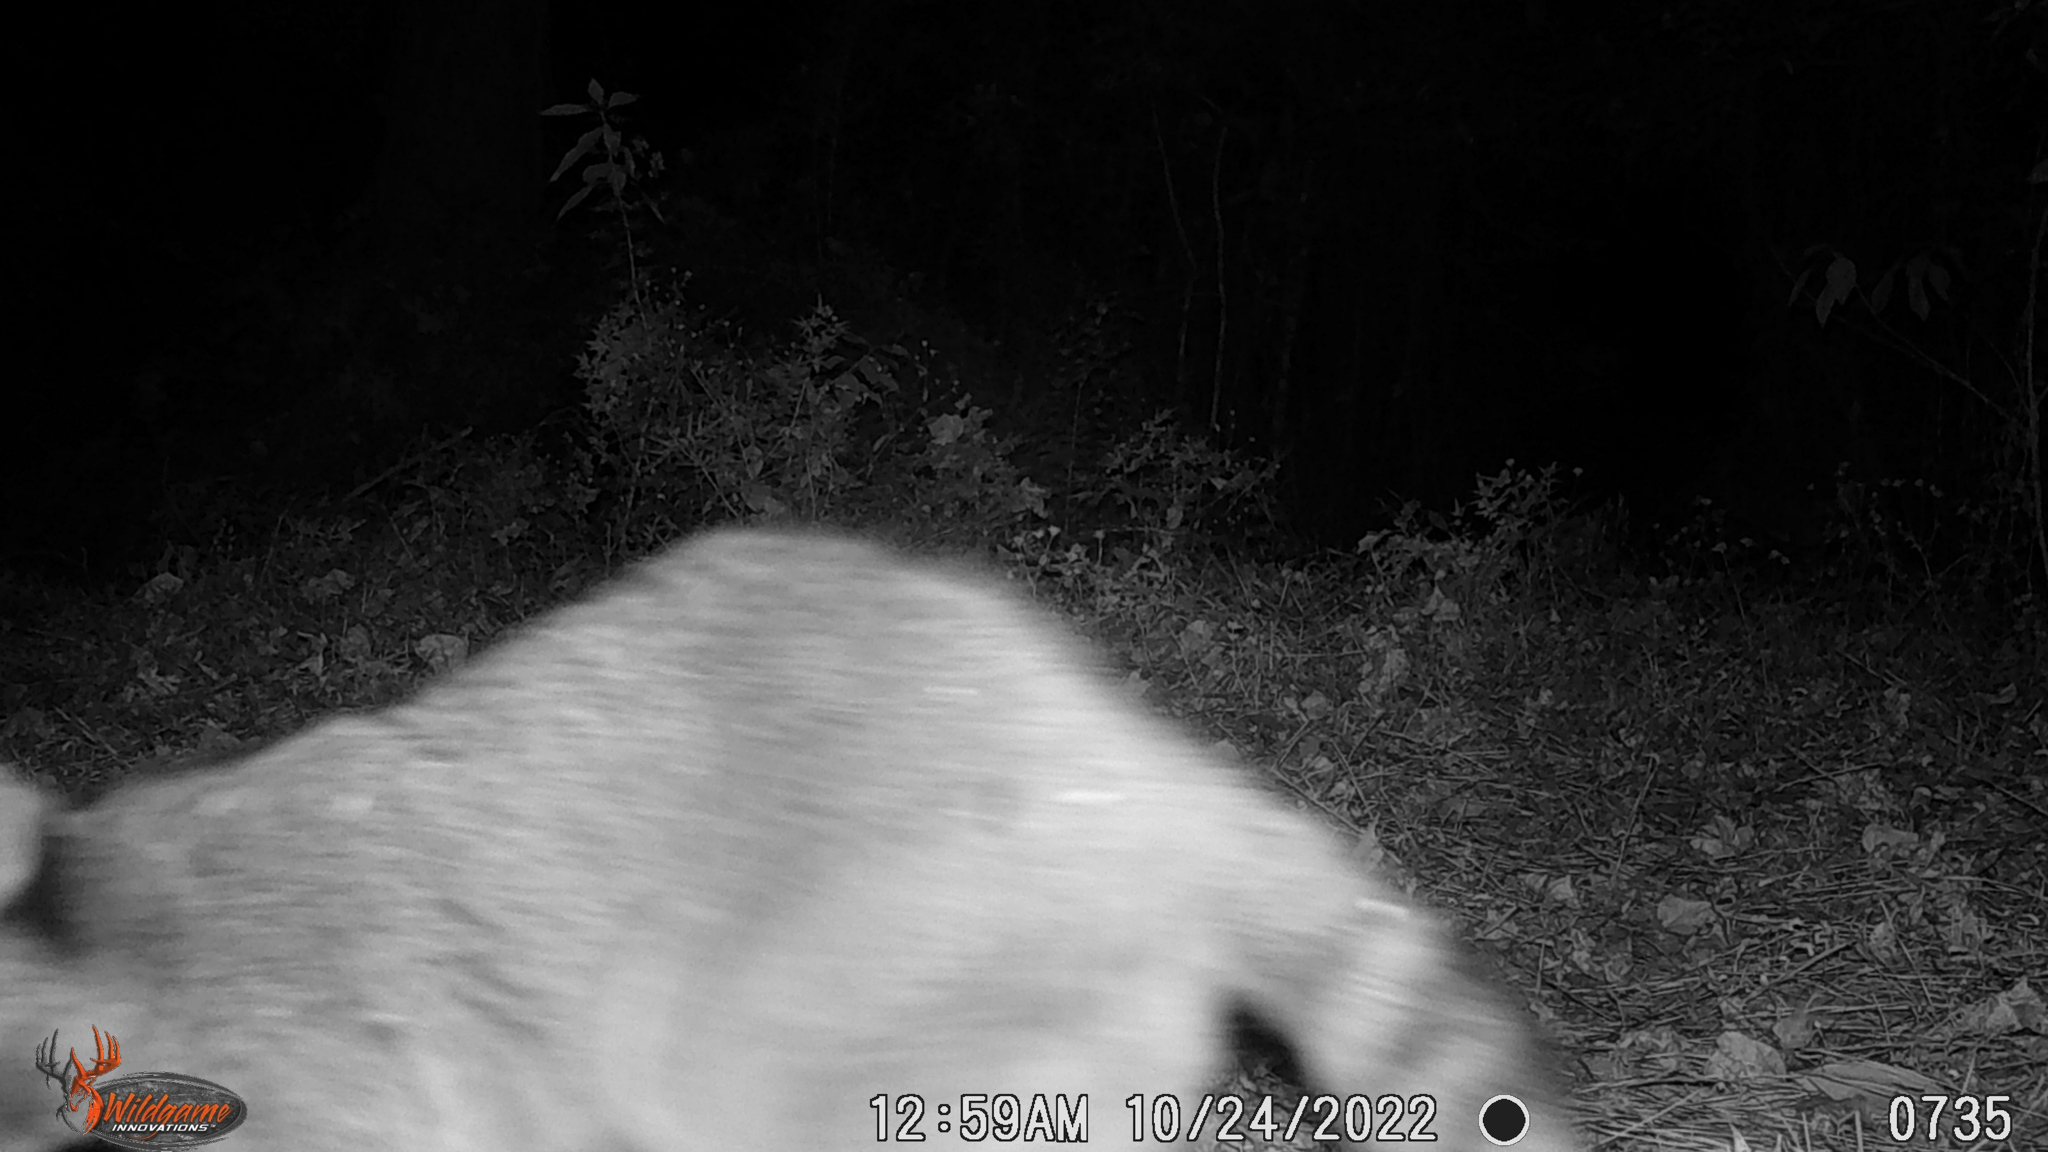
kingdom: Animalia
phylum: Chordata
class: Mammalia
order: Carnivora
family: Procyonidae
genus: Procyon
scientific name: Procyon lotor
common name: Raccoon
